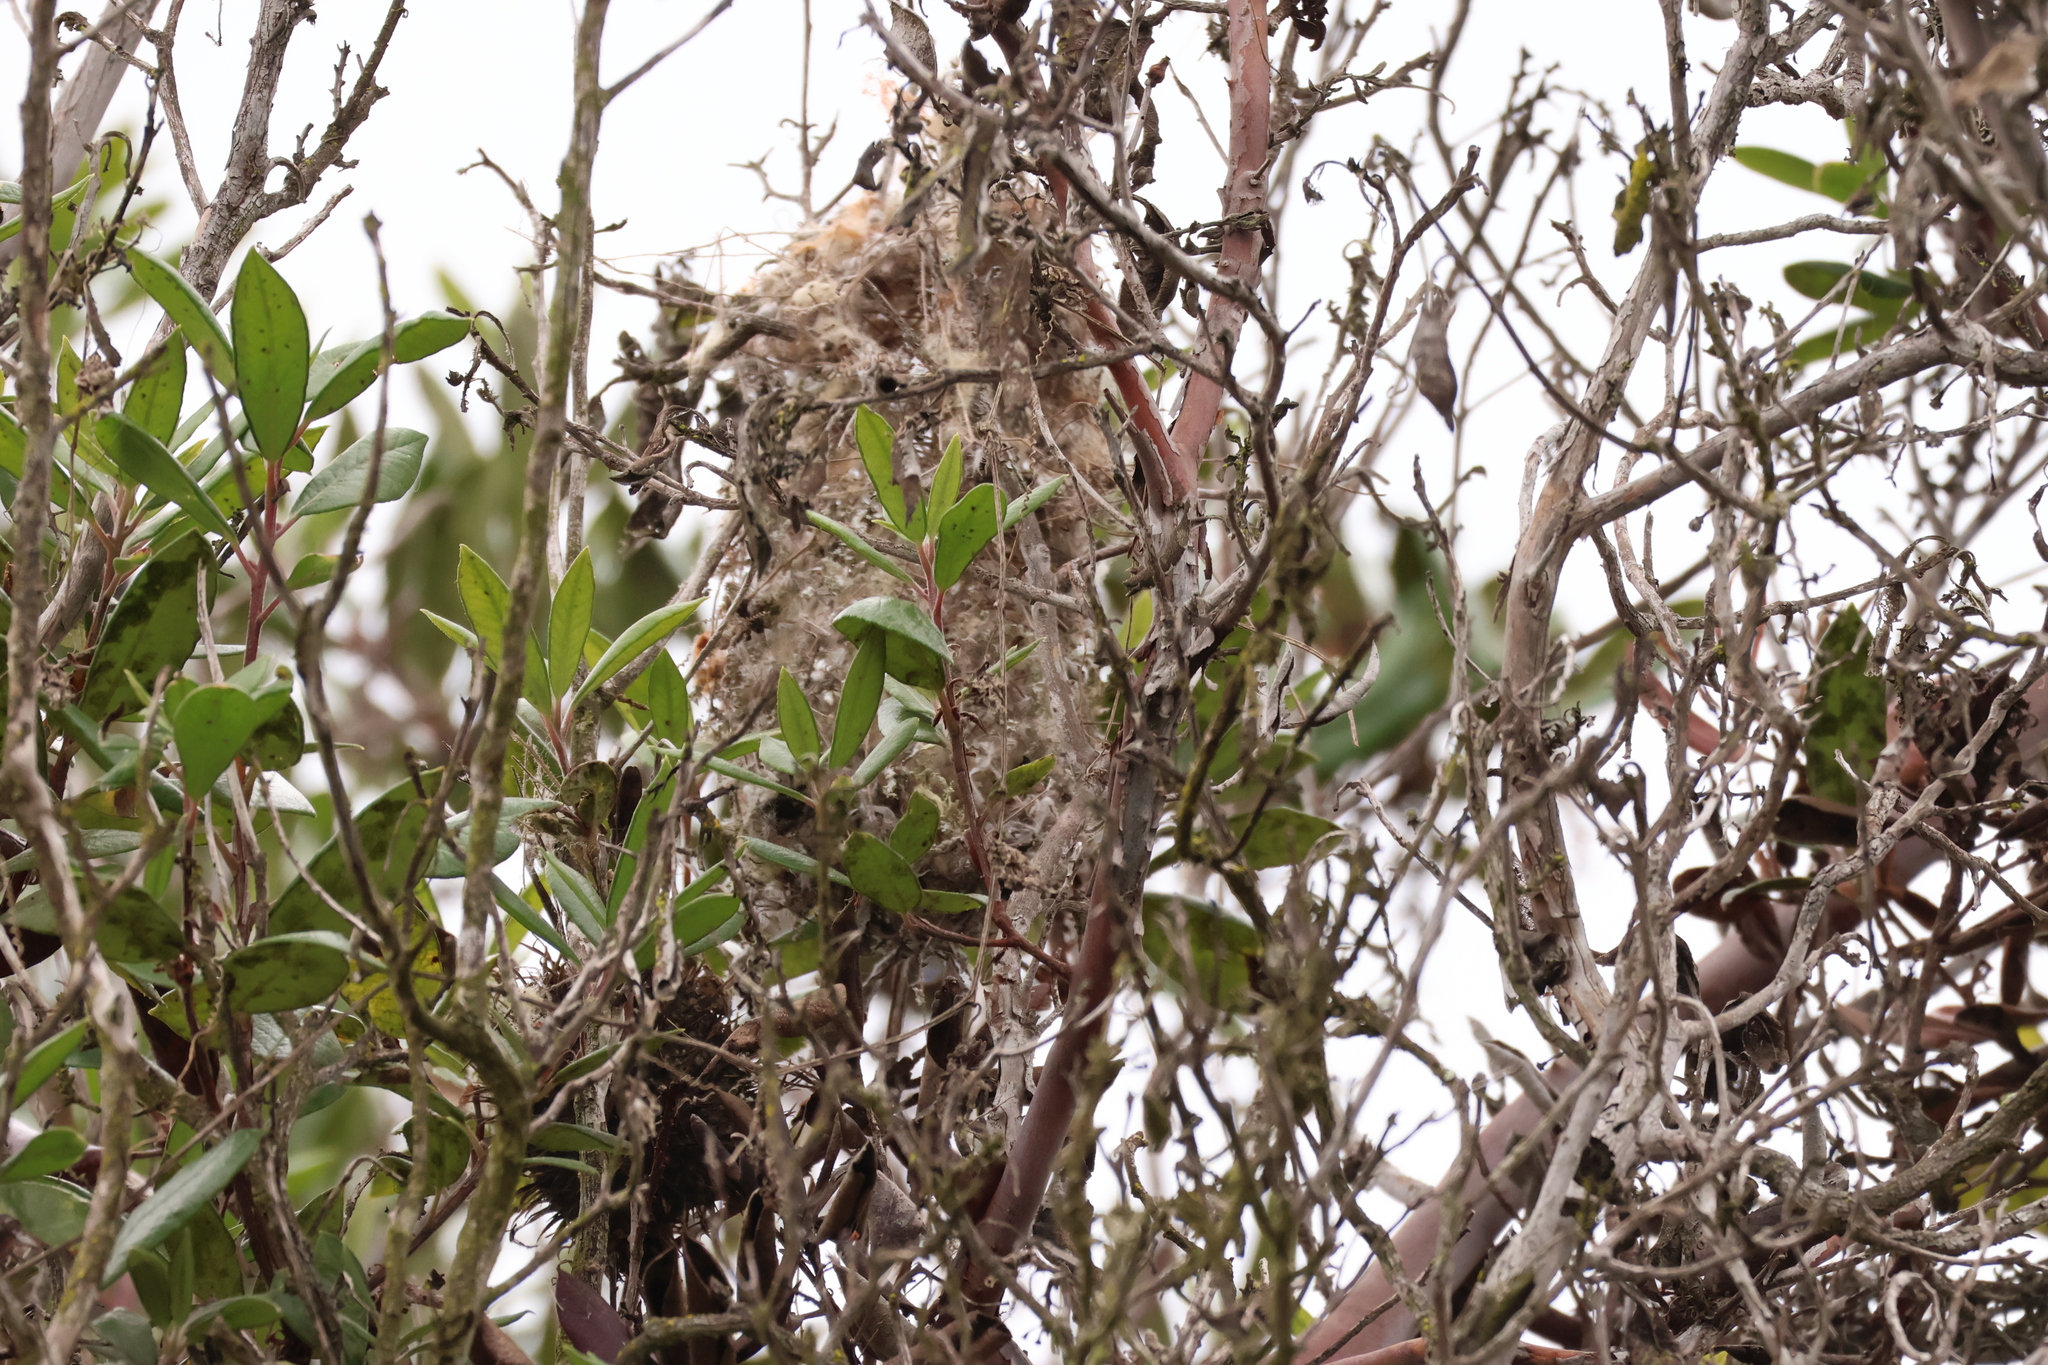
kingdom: Animalia
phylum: Chordata
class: Aves
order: Passeriformes
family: Aegithalidae
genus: Psaltriparus
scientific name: Psaltriparus minimus
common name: American bushtit
